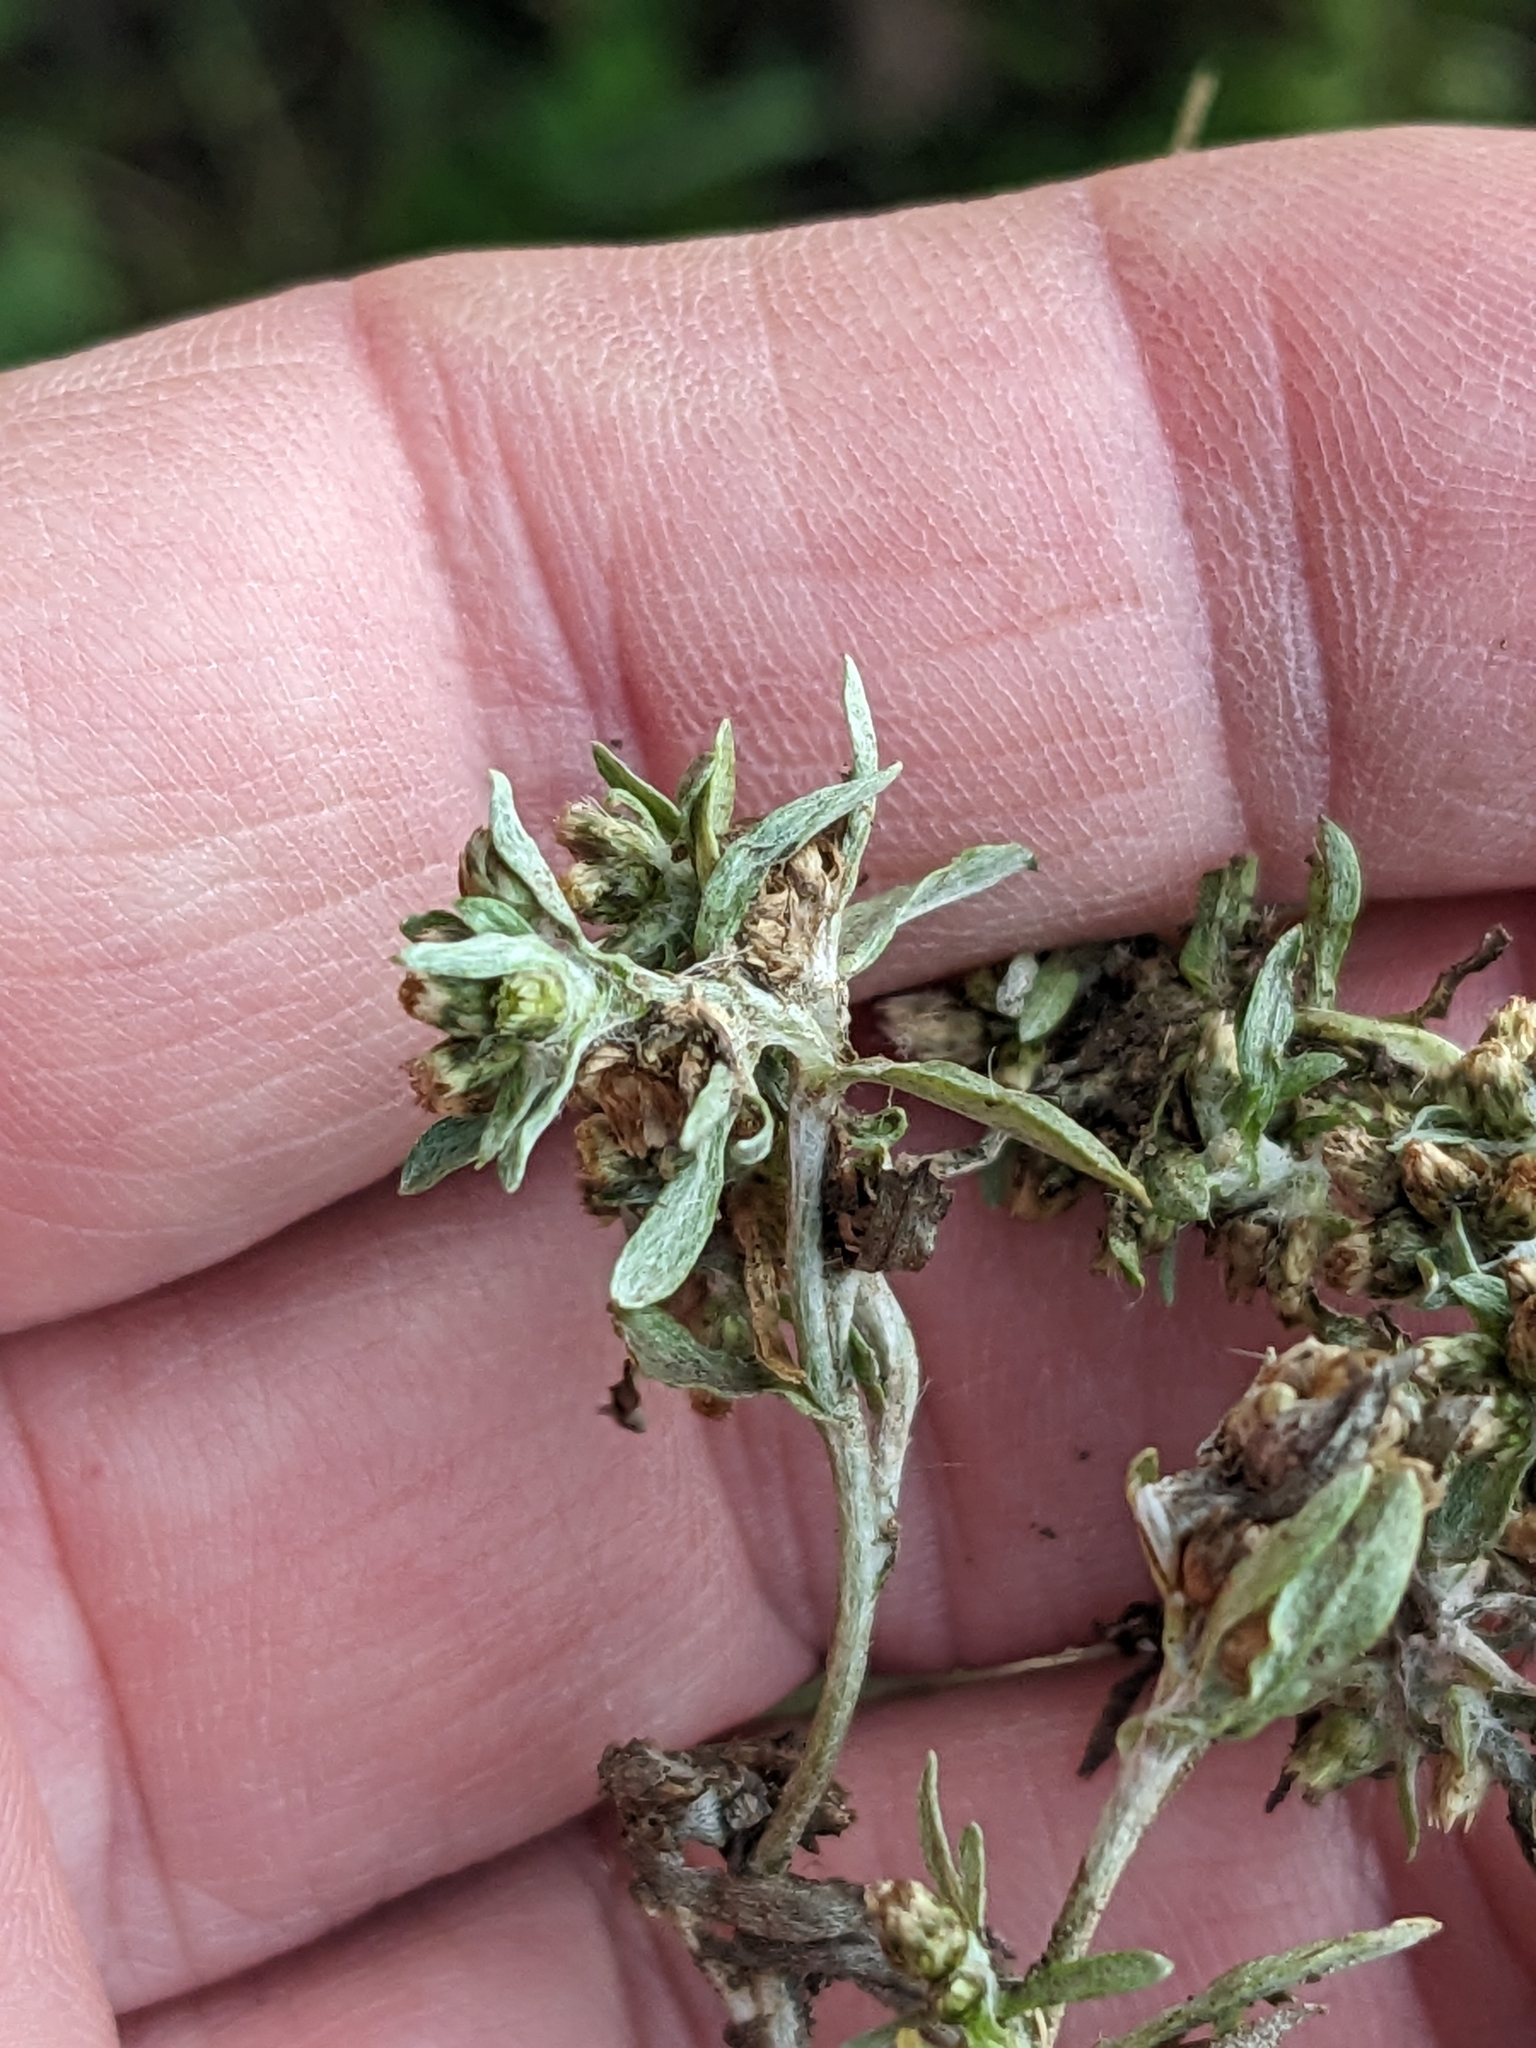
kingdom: Plantae
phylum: Tracheophyta
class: Magnoliopsida
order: Asterales
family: Asteraceae
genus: Gnaphalium
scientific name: Gnaphalium uliginosum
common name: Marsh cudweed
